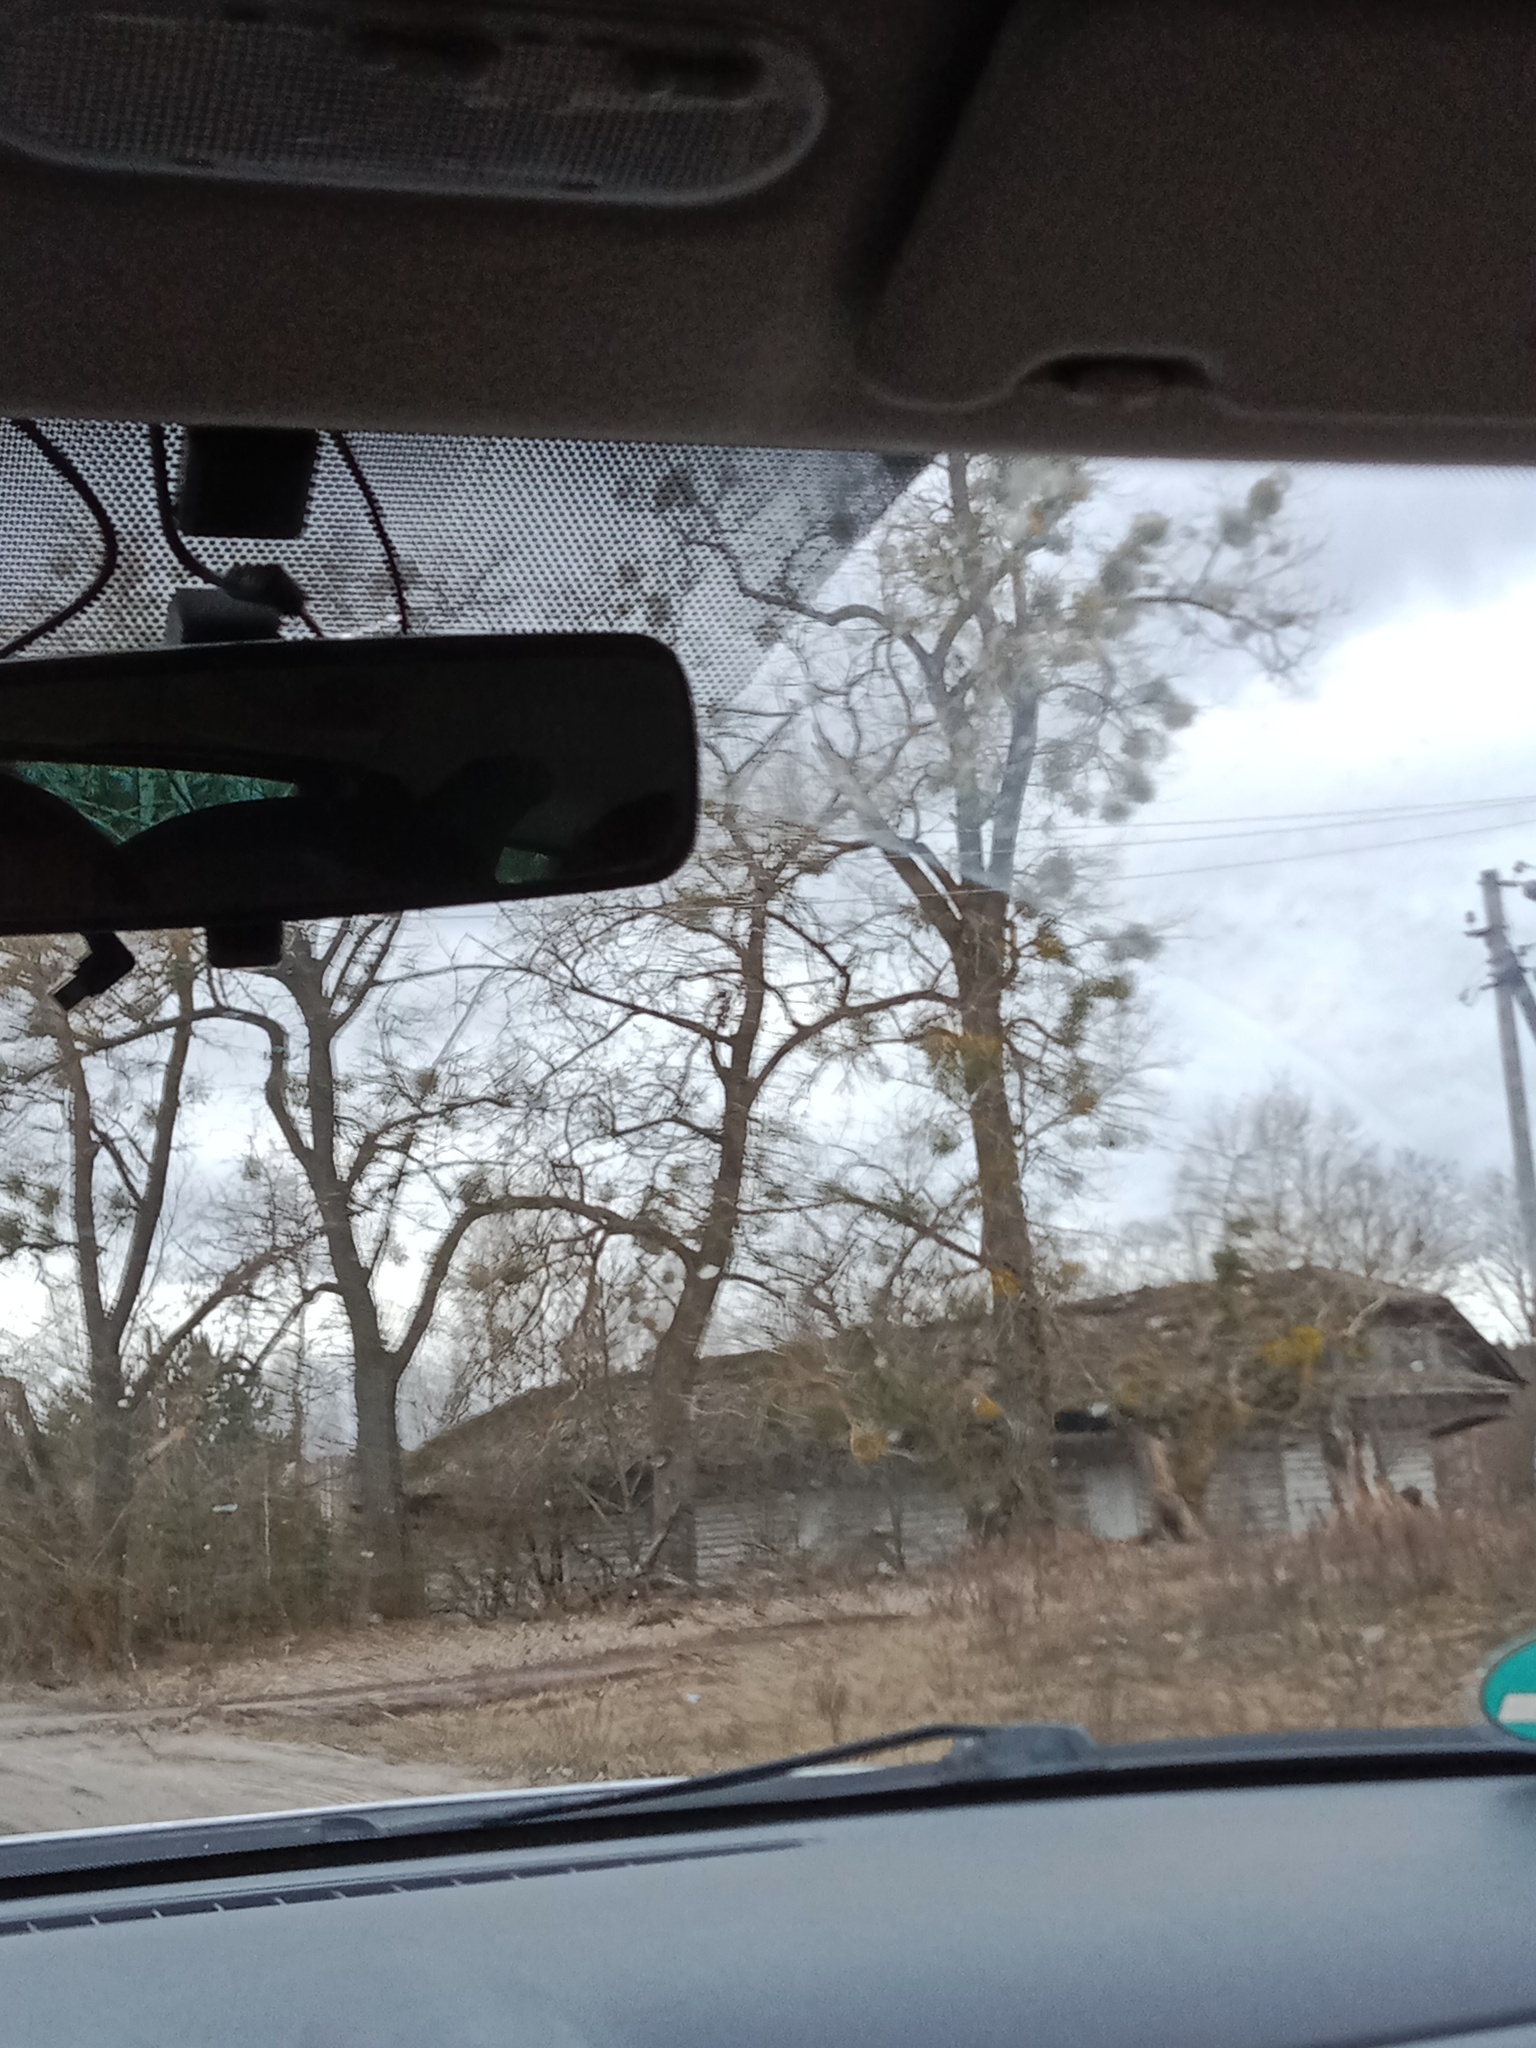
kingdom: Plantae
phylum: Tracheophyta
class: Magnoliopsida
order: Santalales
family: Viscaceae
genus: Viscum
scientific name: Viscum album
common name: Mistletoe
